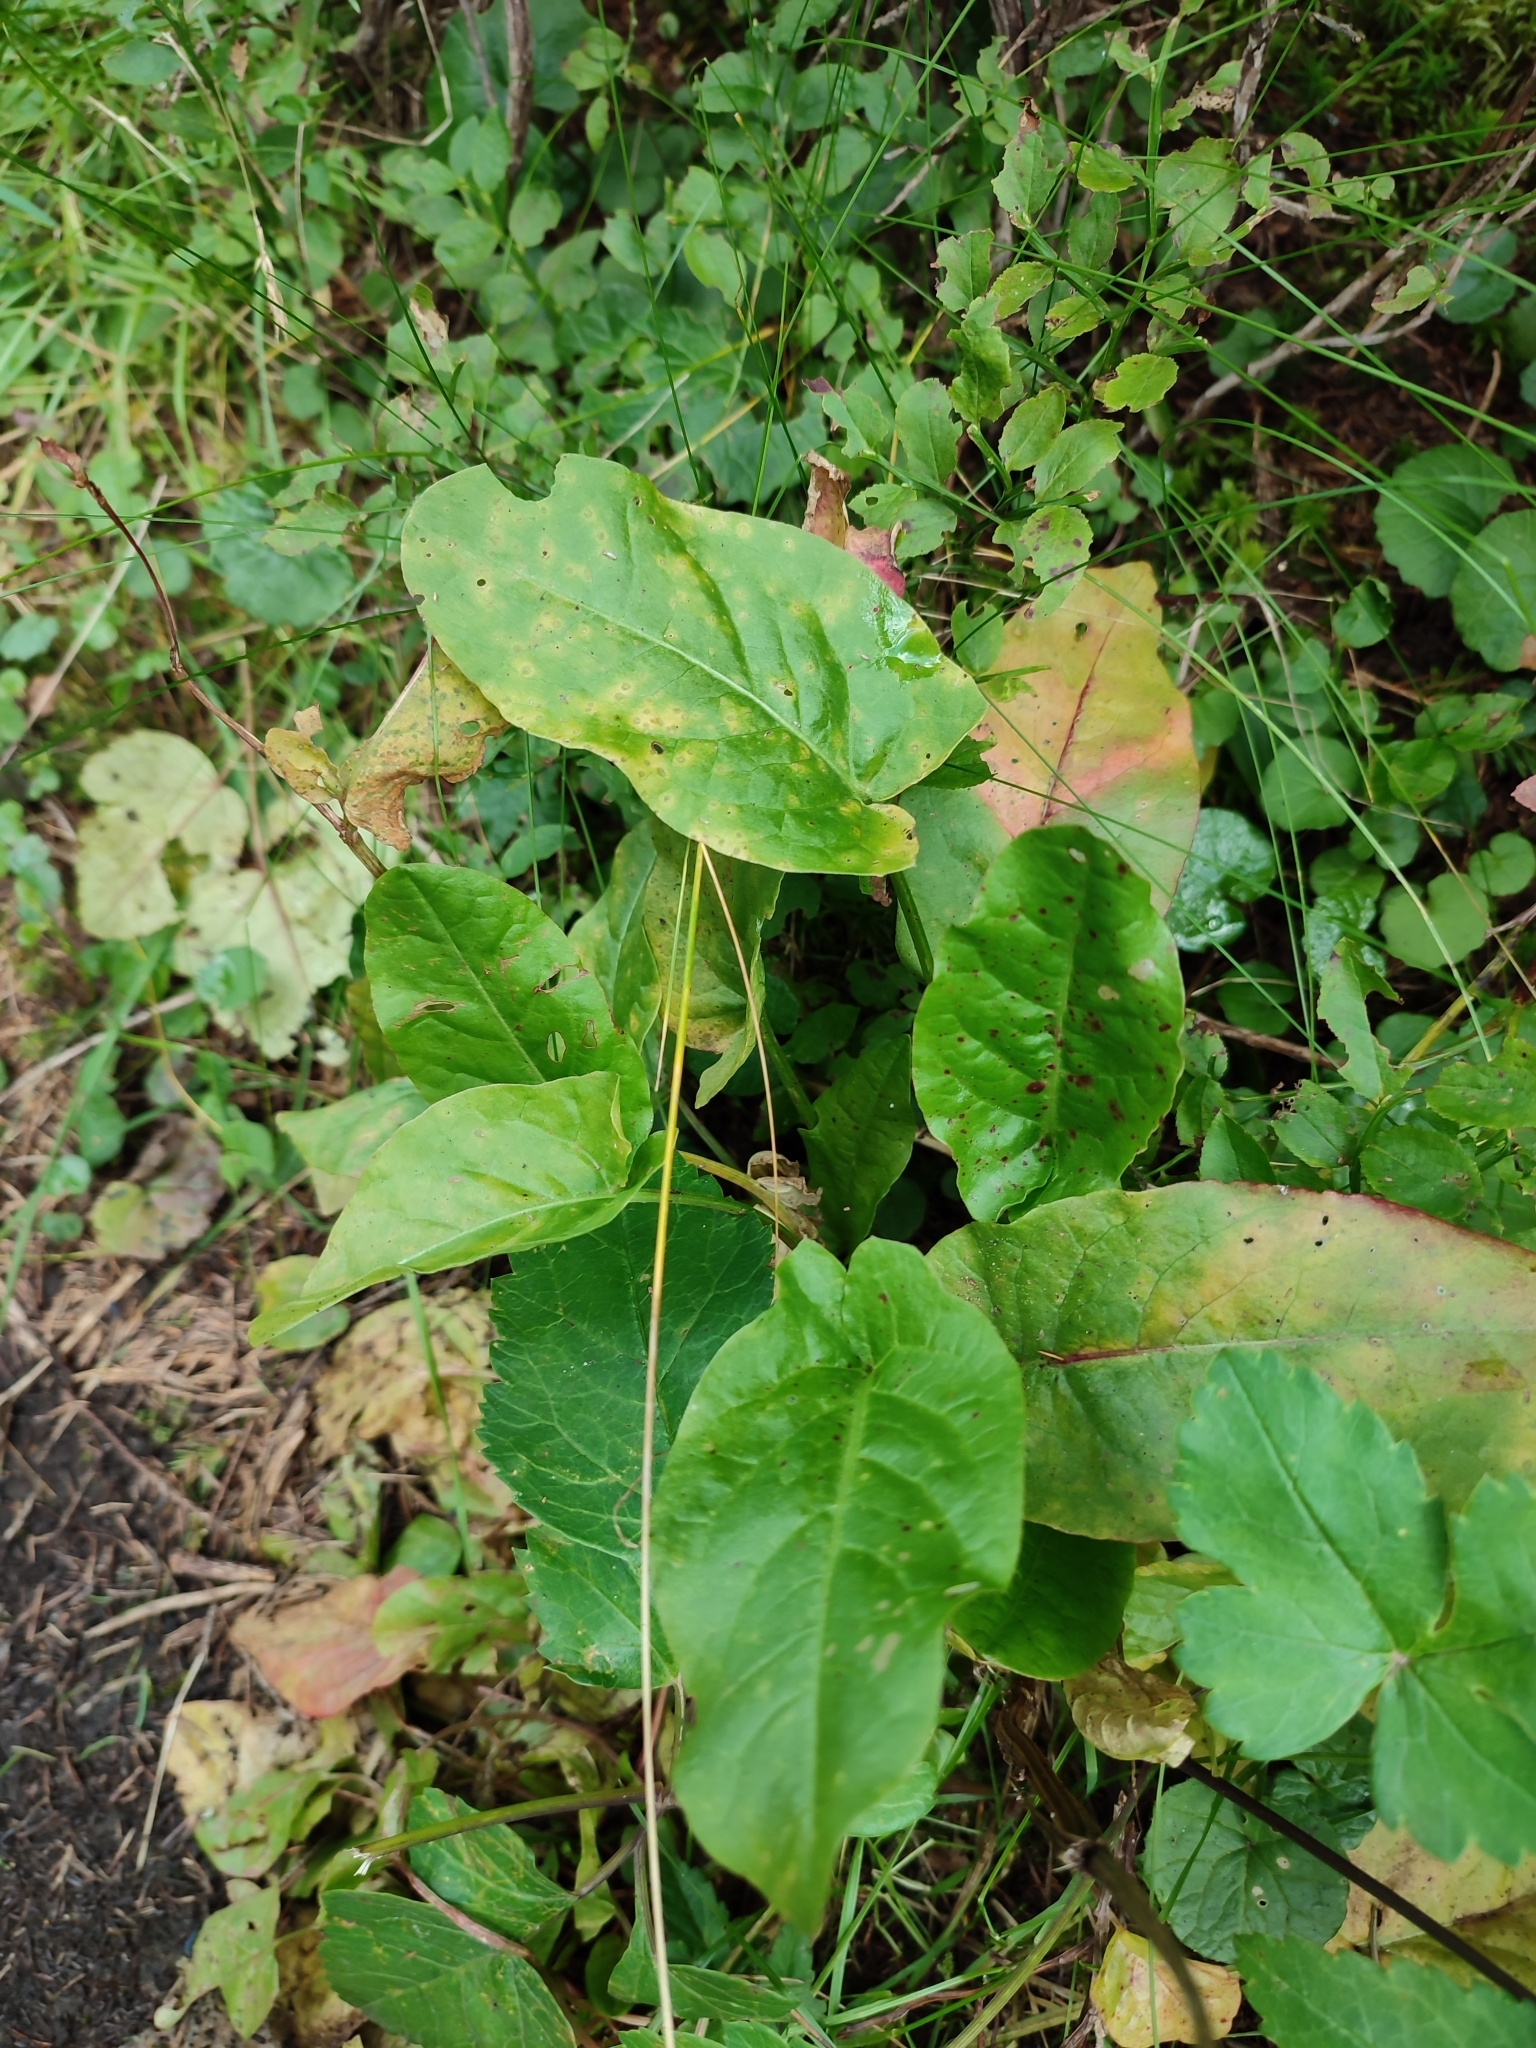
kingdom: Plantae
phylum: Tracheophyta
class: Magnoliopsida
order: Caryophyllales
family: Polygonaceae
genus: Rumex
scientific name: Rumex arifolius
